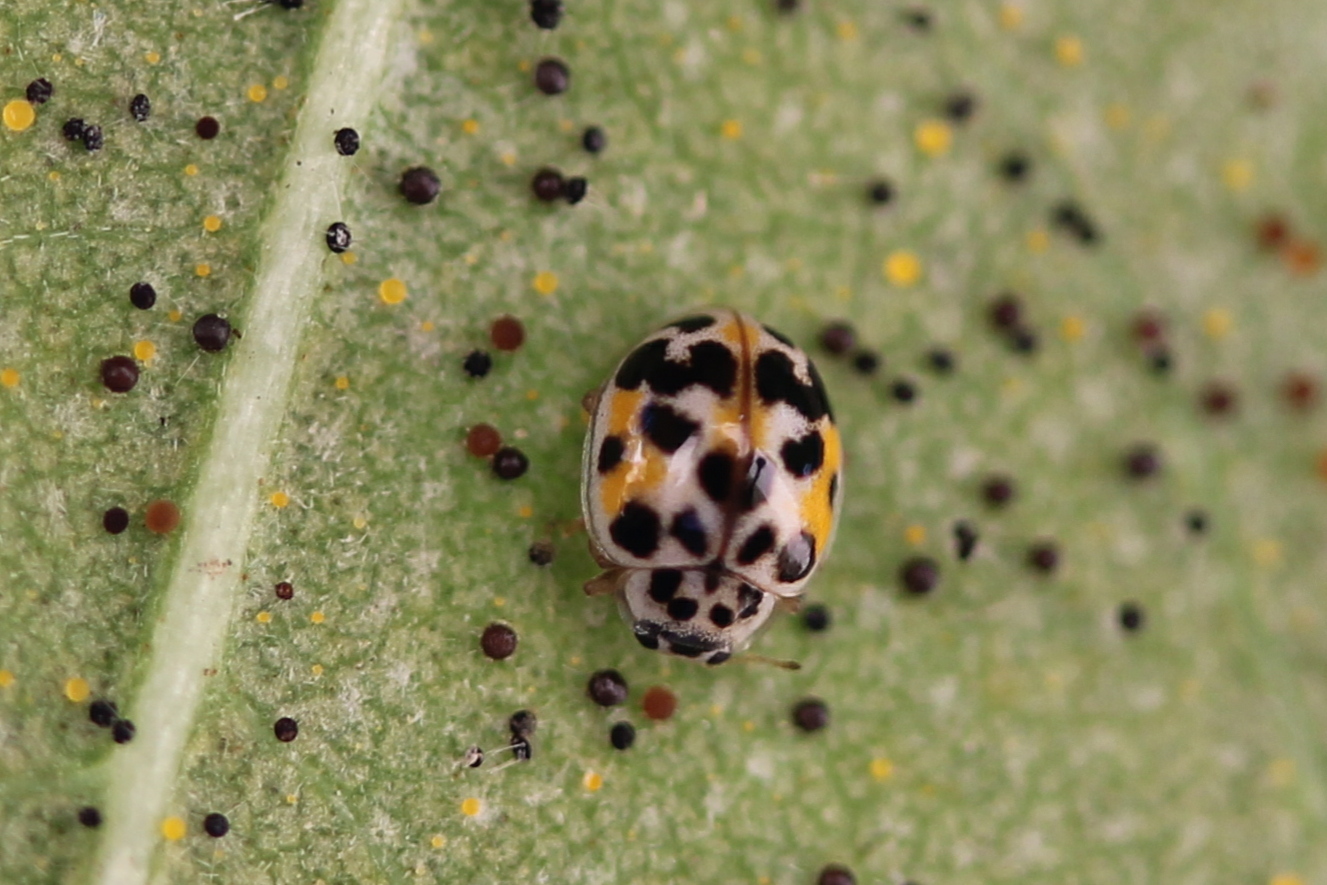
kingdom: Animalia
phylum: Arthropoda
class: Insecta
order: Coleoptera
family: Coccinellidae
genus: Psyllobora
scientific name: Psyllobora vigintimaculata
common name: Ladybird beetle
